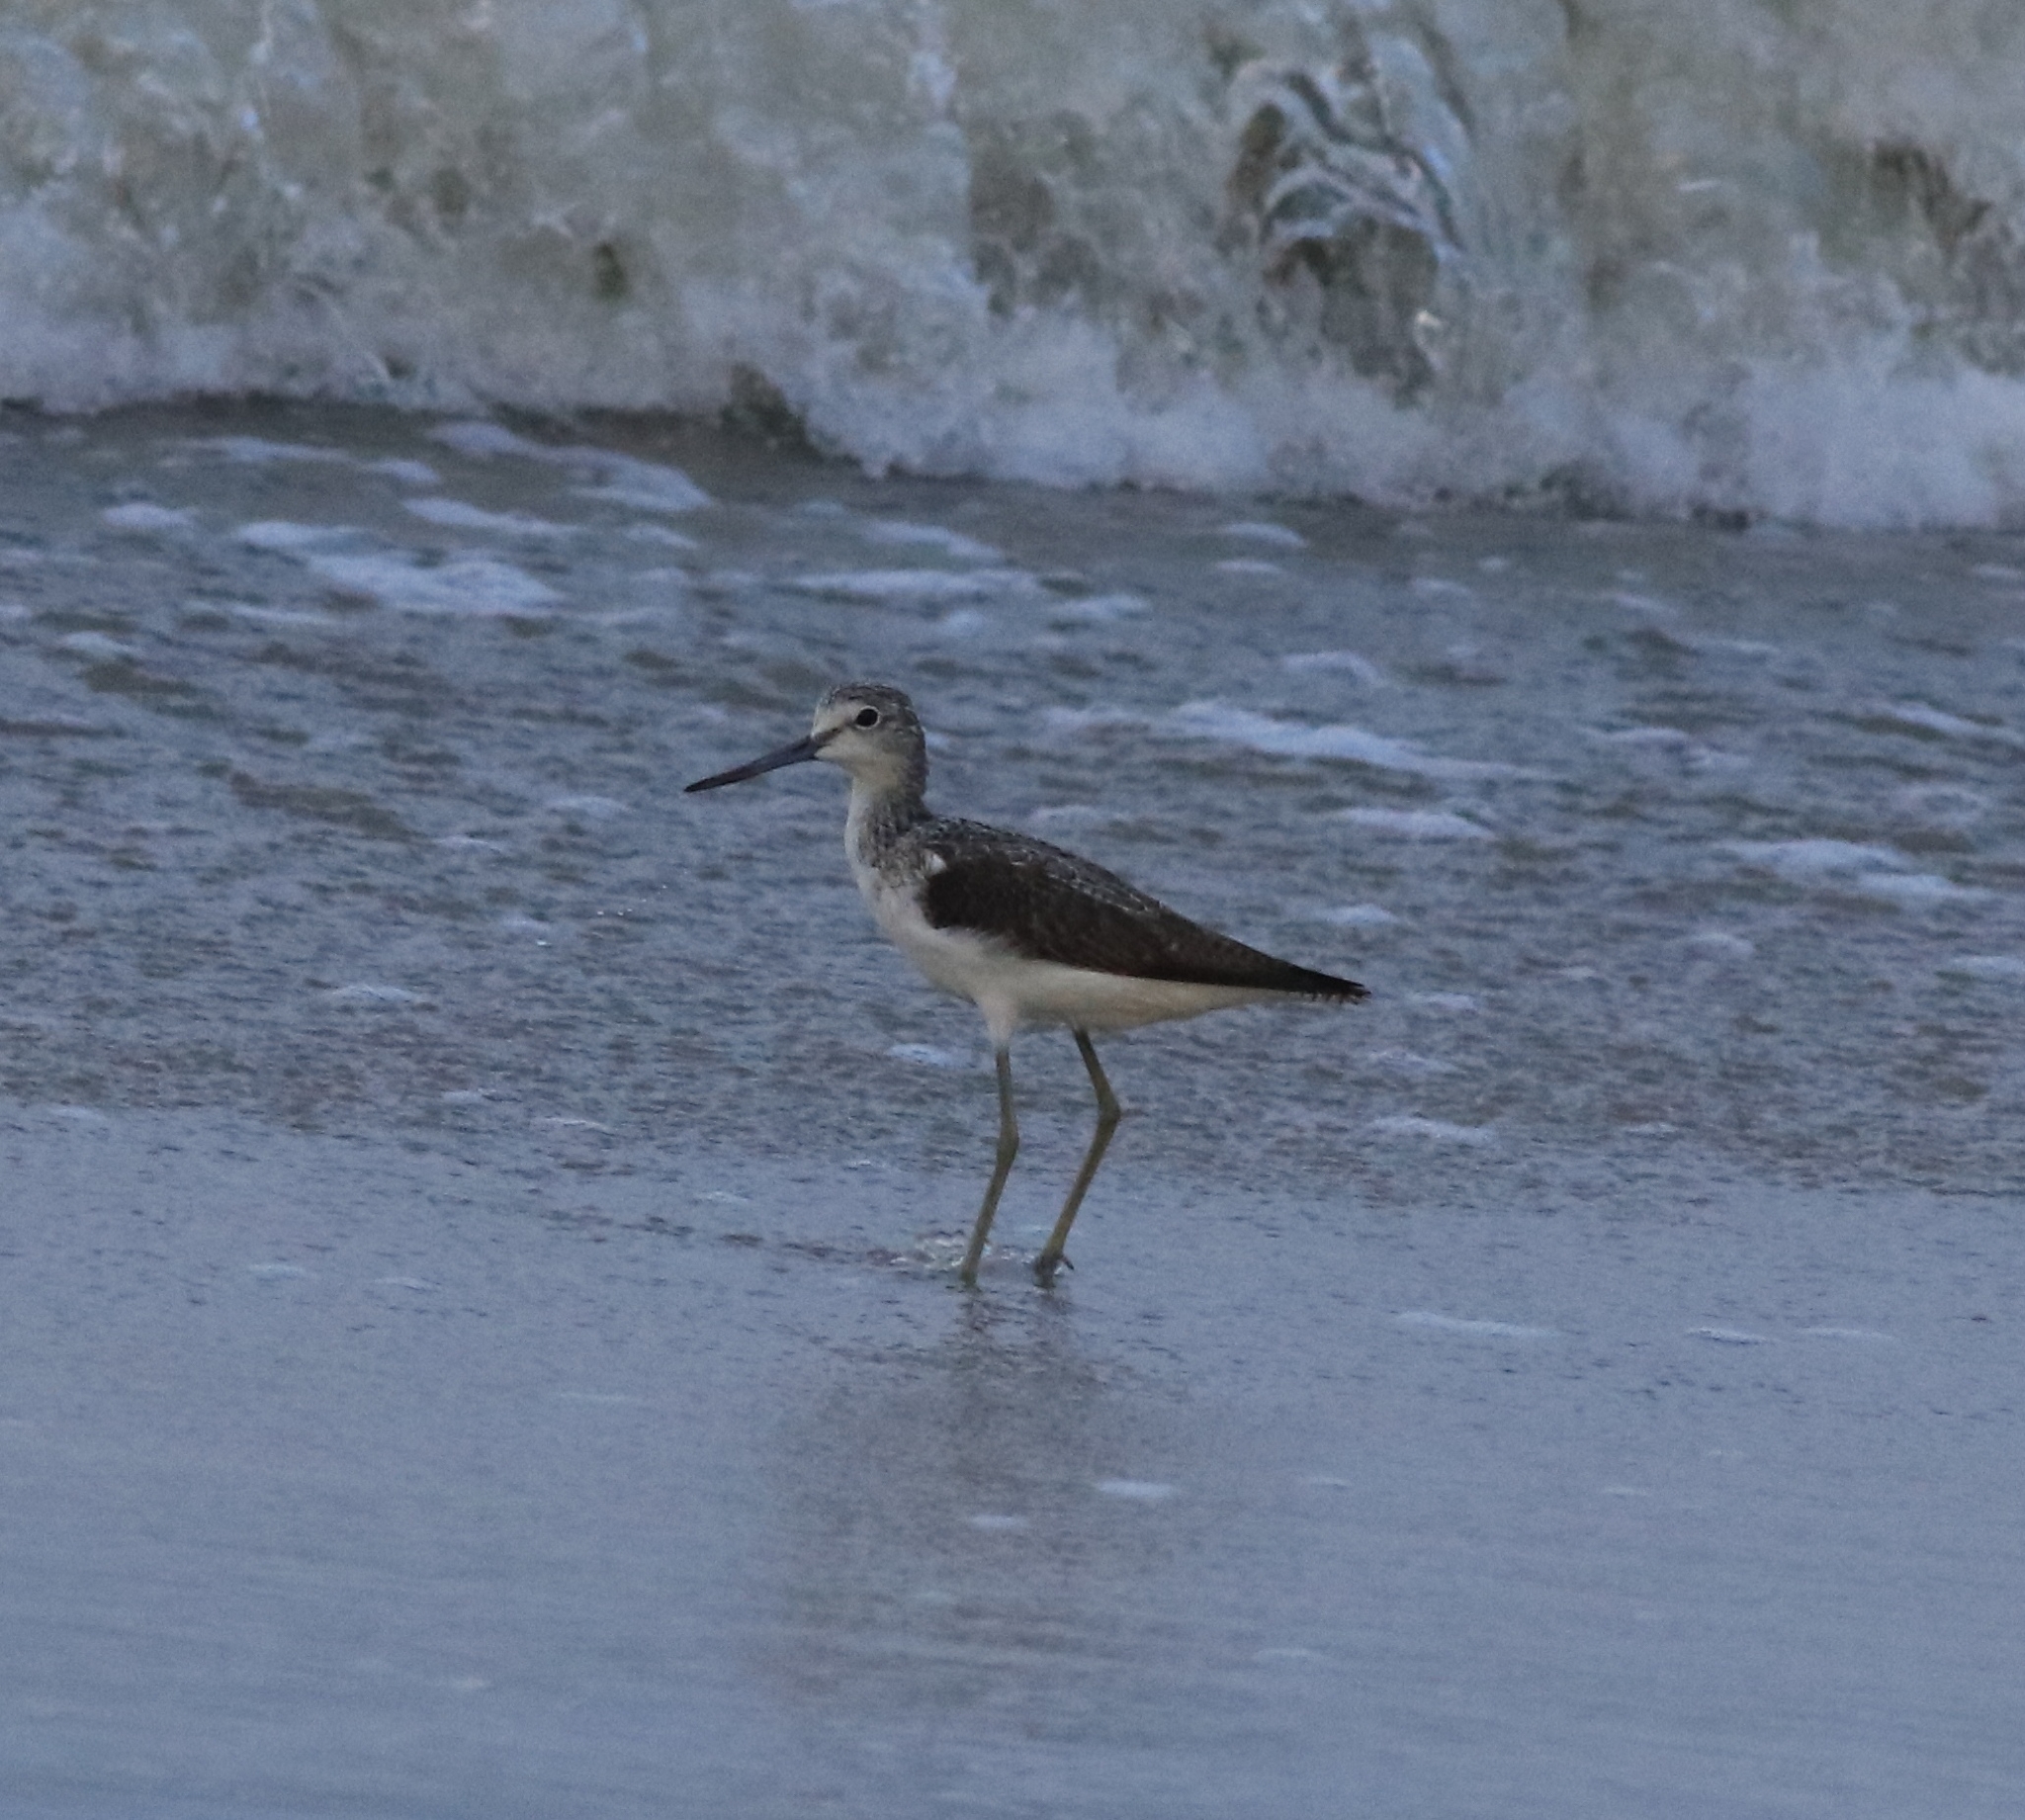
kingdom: Animalia
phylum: Chordata
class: Aves
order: Charadriiformes
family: Scolopacidae
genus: Tringa
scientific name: Tringa nebularia
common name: Common greenshank
